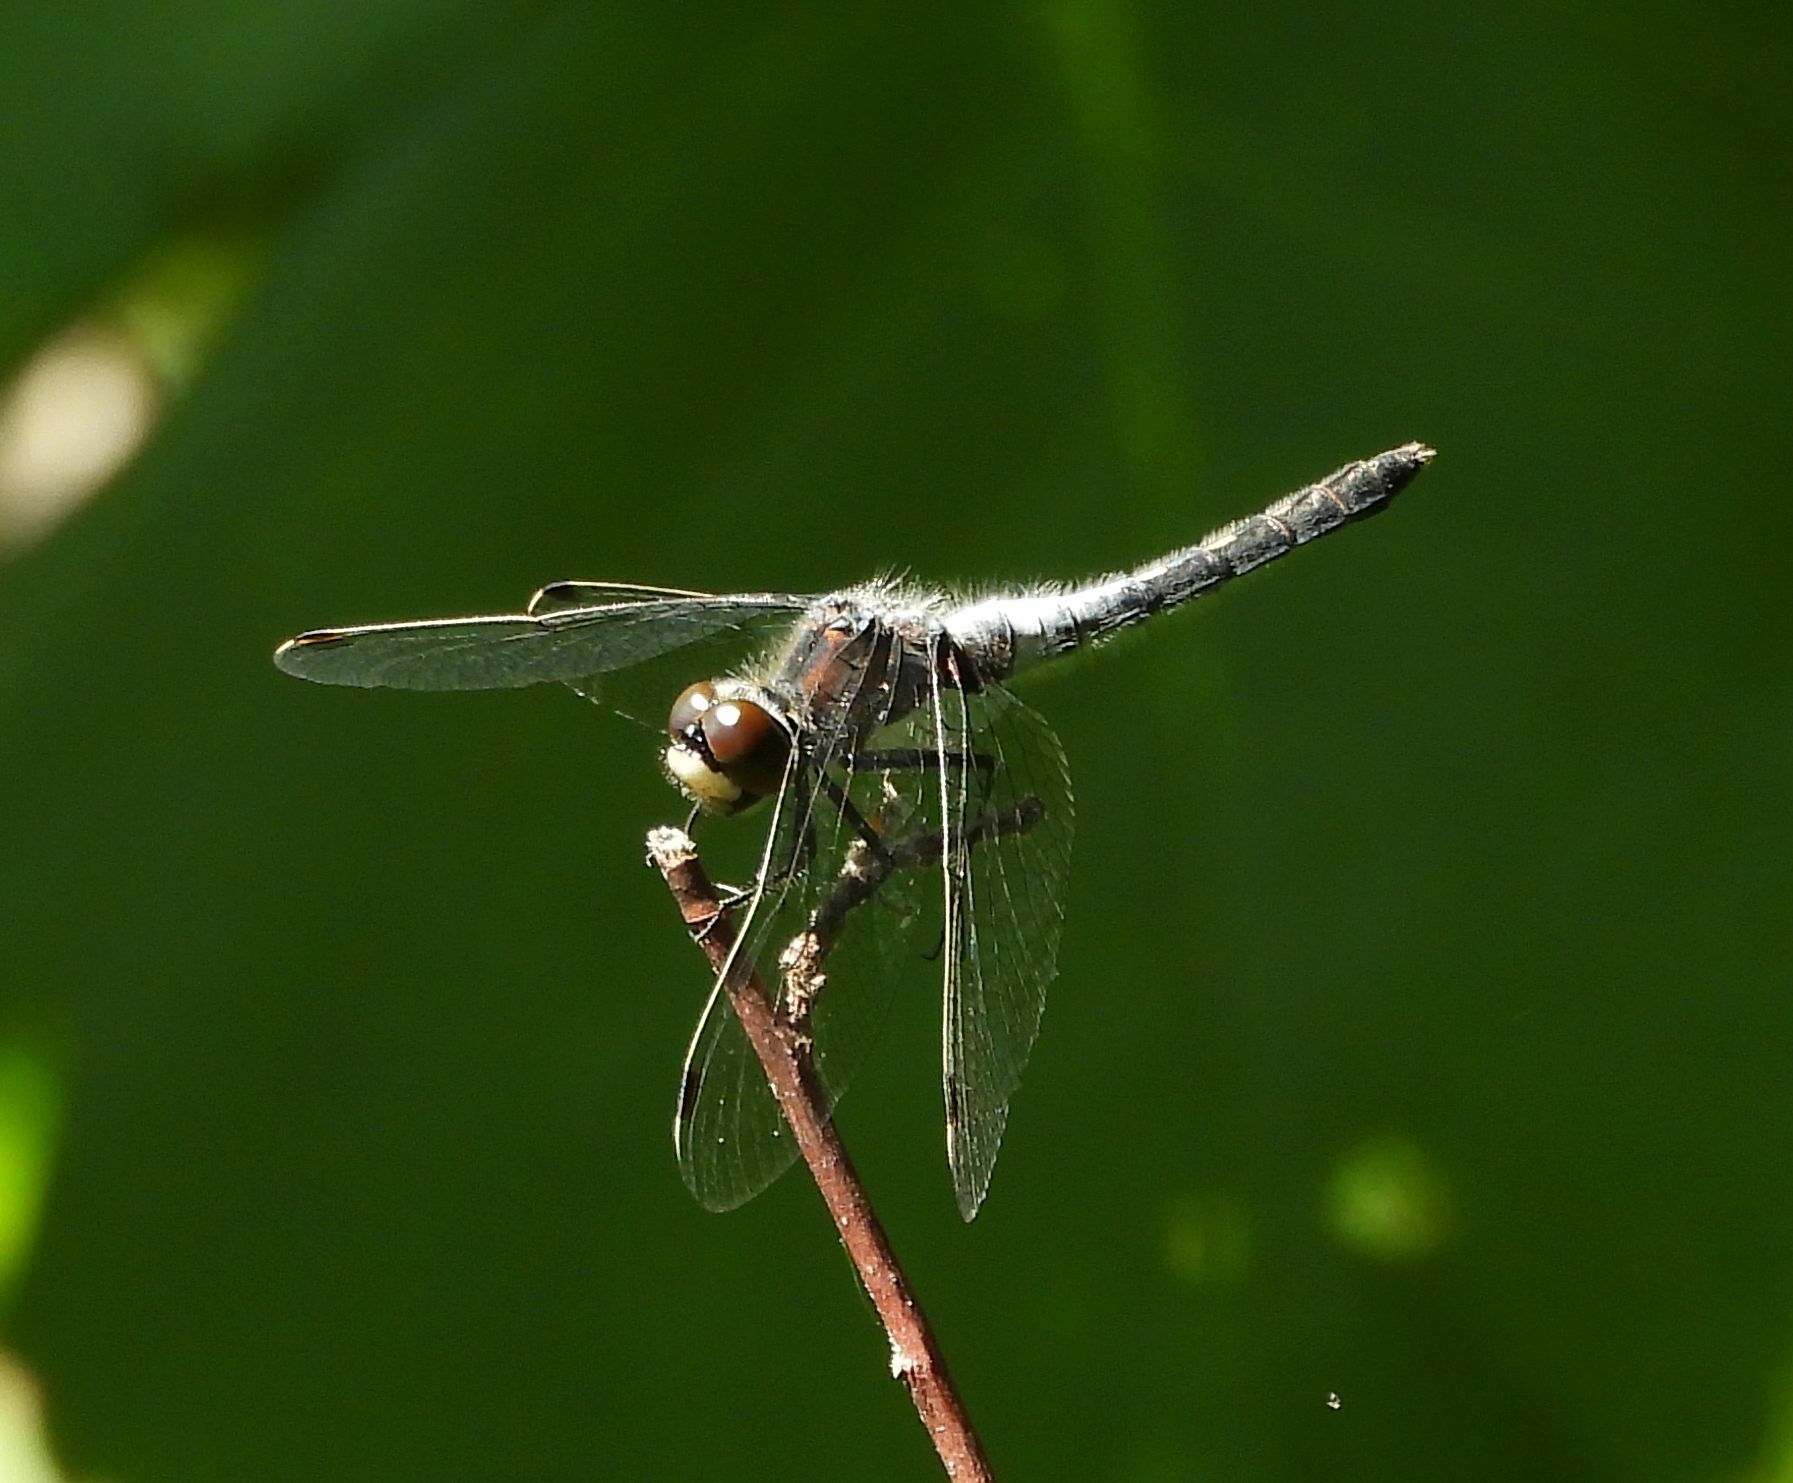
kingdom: Animalia
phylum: Arthropoda
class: Insecta
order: Odonata
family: Libellulidae
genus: Leucorrhinia
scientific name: Leucorrhinia frigida
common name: Frosted whiteface
